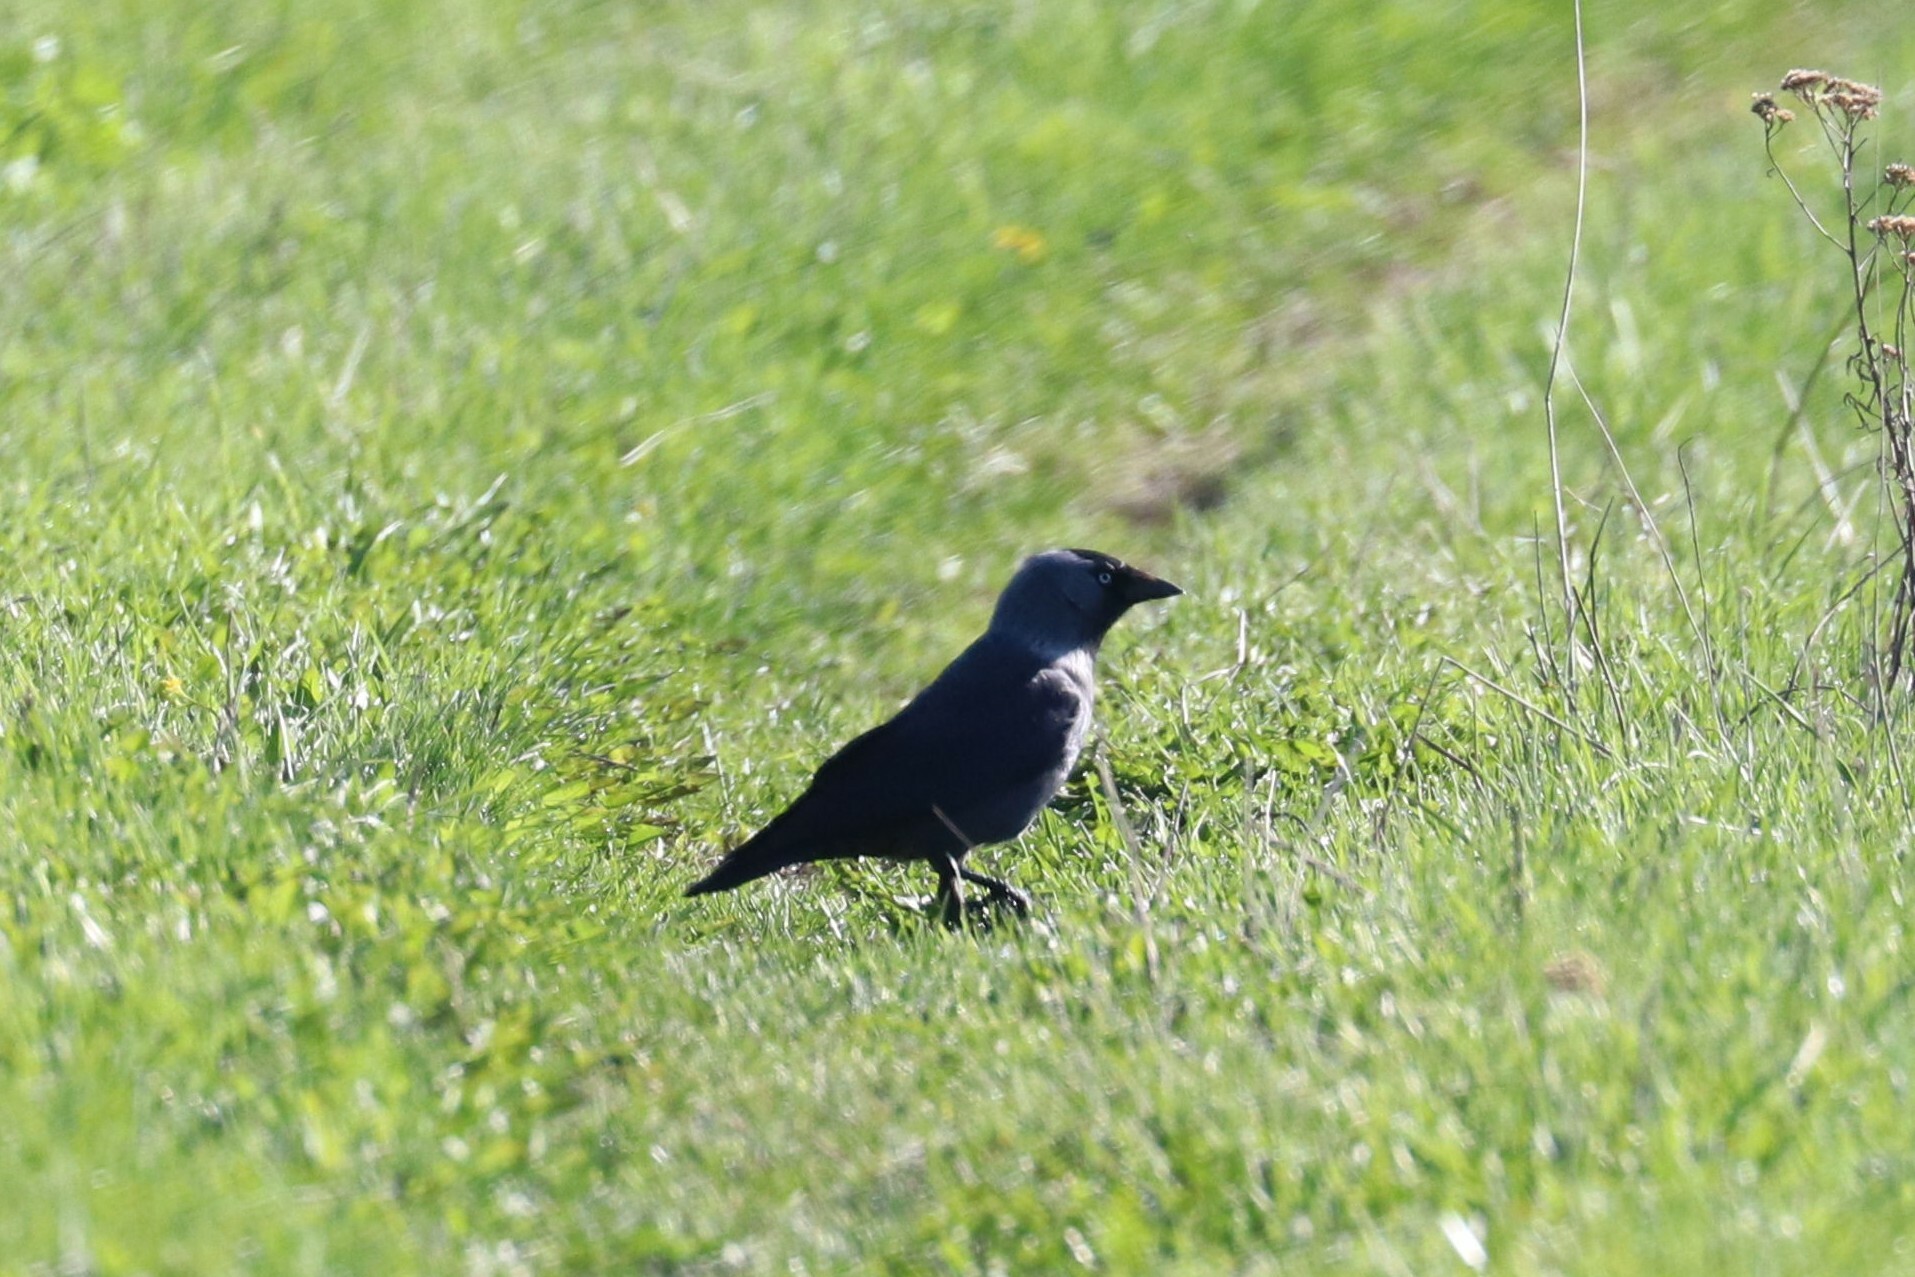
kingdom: Animalia
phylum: Chordata
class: Aves
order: Passeriformes
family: Corvidae
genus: Coloeus
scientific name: Coloeus monedula
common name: Western jackdaw
